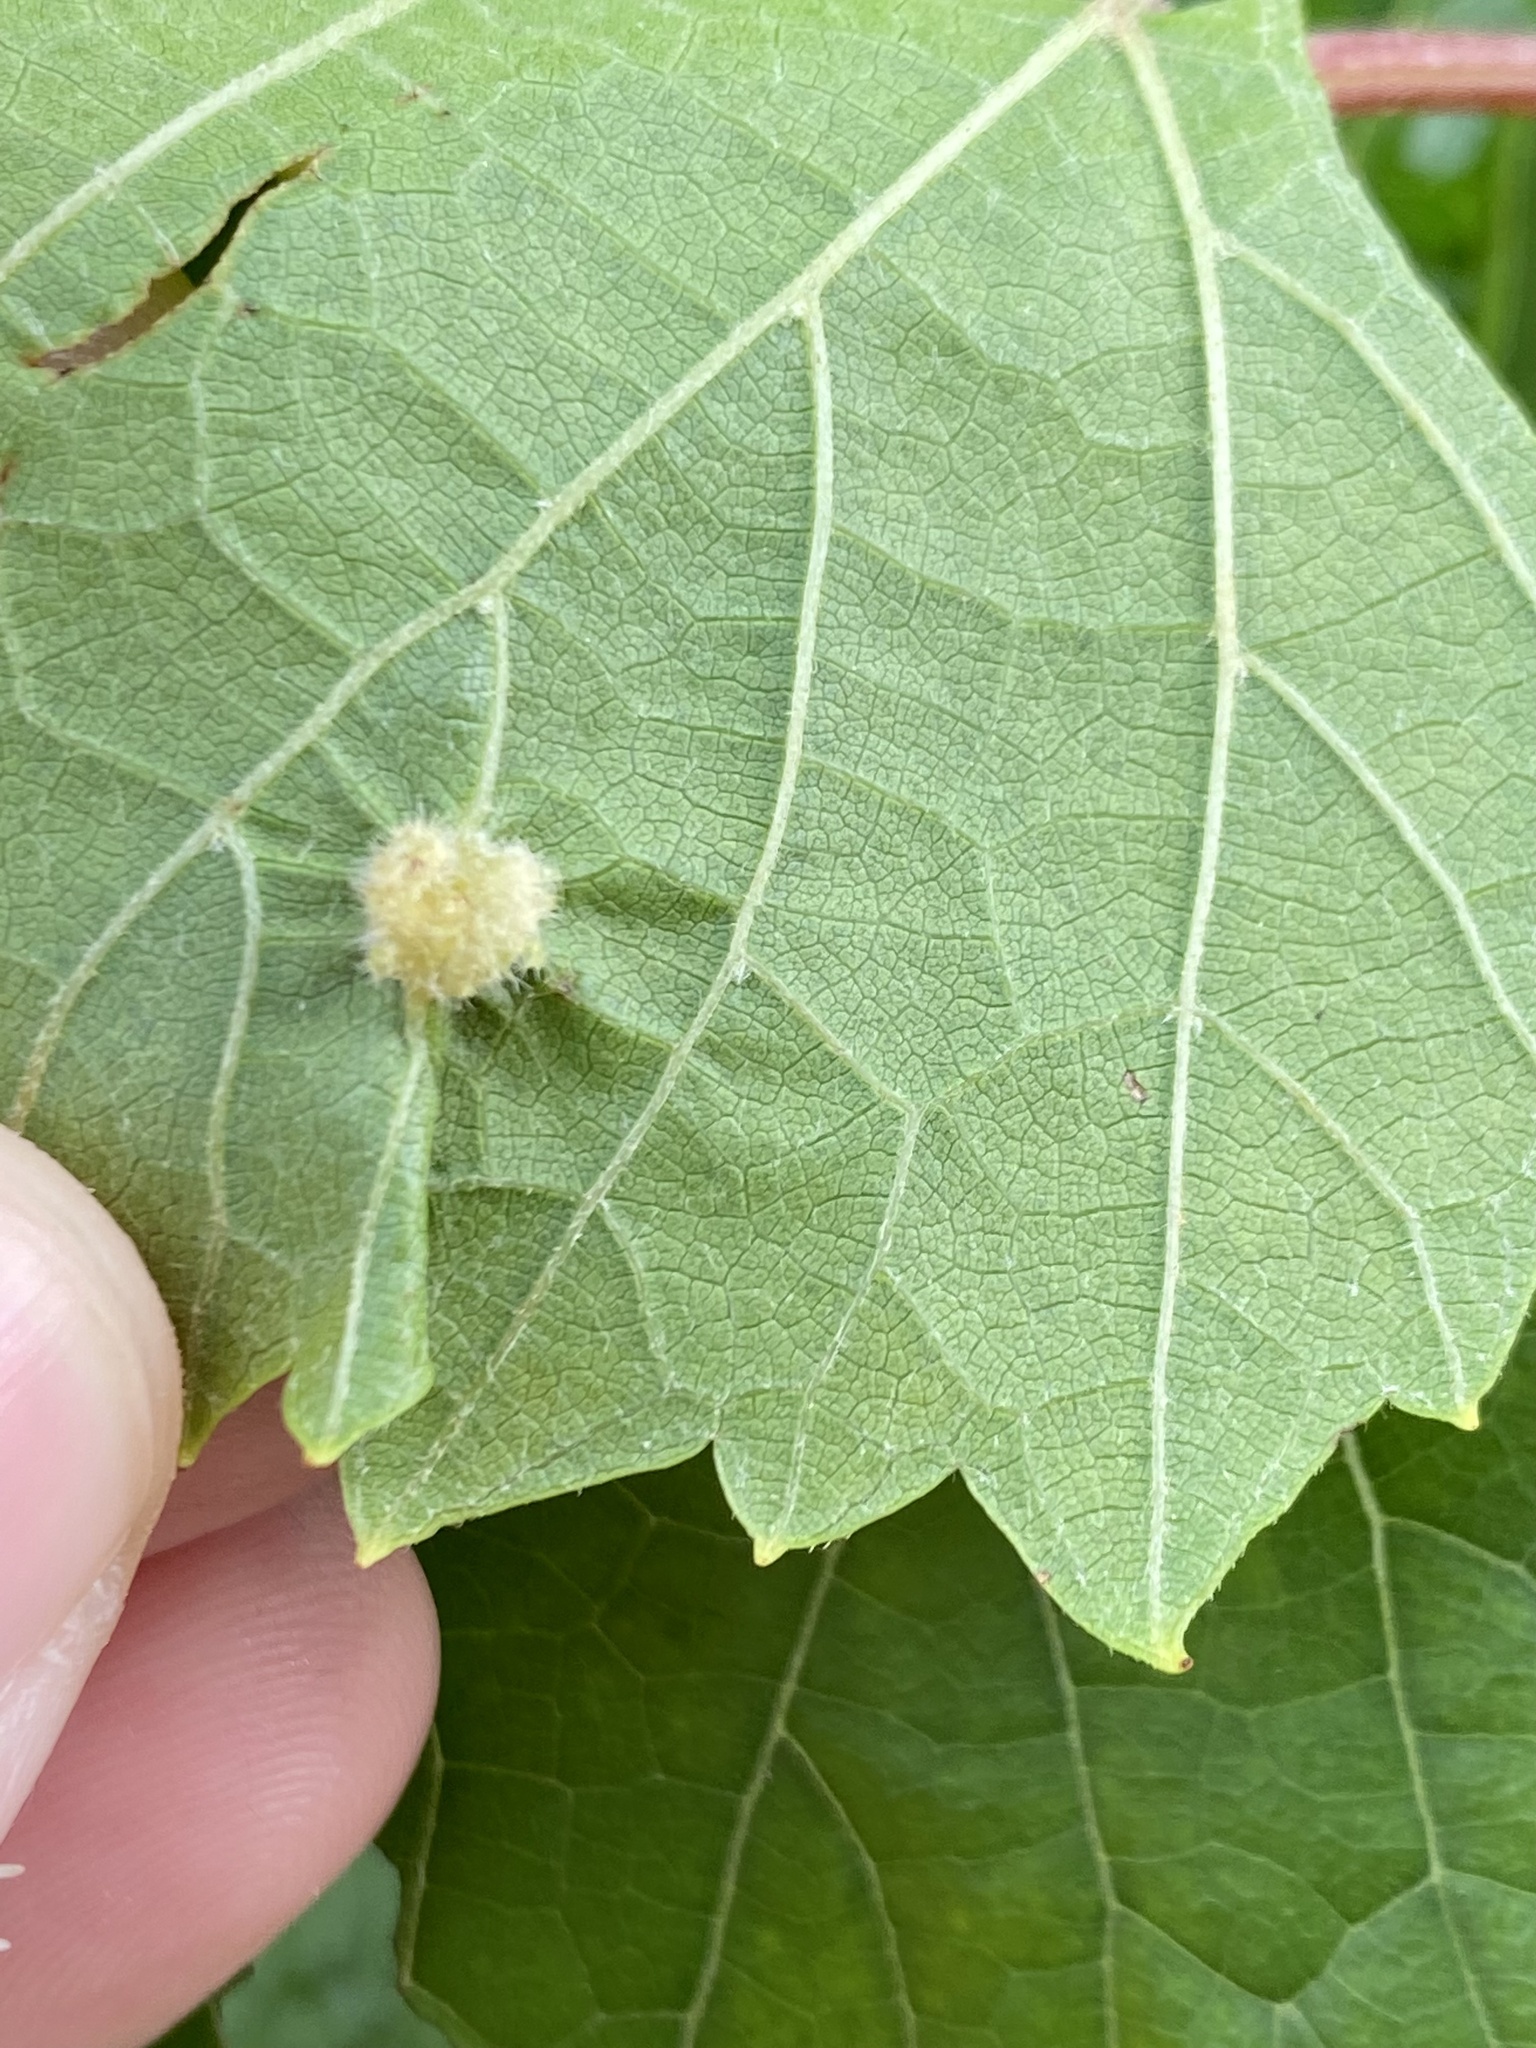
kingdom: Animalia
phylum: Arthropoda
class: Insecta
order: Hemiptera
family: Phylloxeridae
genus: Daktulosphaira
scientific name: Daktulosphaira vitifoliae
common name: Grape phylloxera
